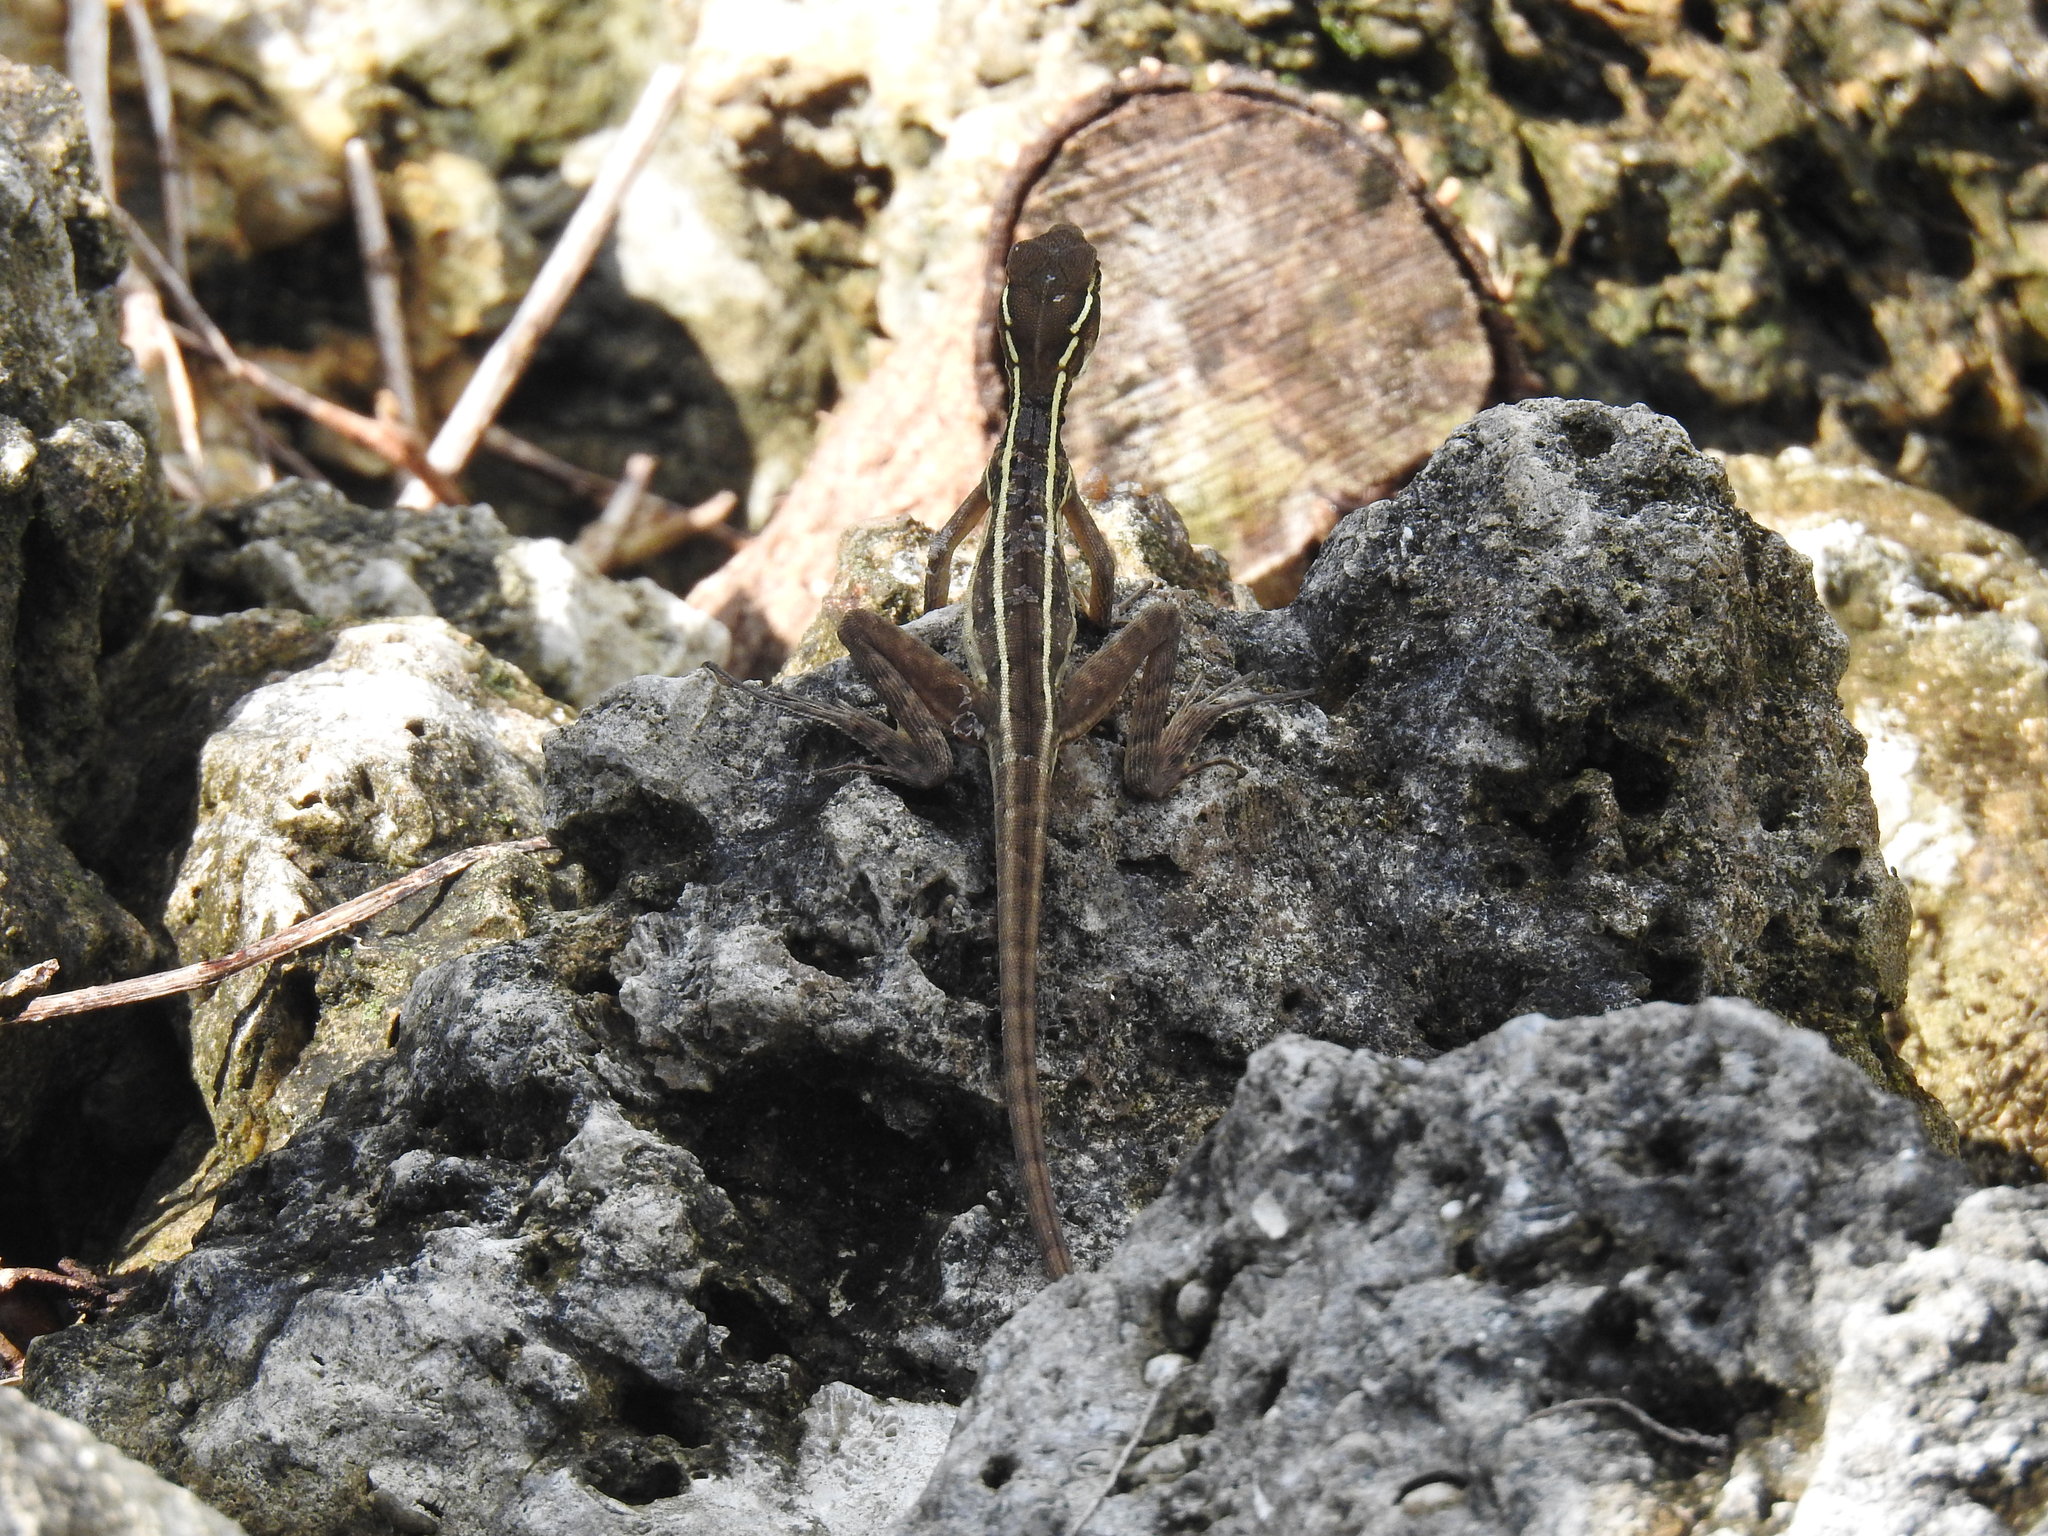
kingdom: Animalia
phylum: Chordata
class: Squamata
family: Corytophanidae
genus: Basiliscus
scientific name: Basiliscus vittatus
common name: Brown basilisk
